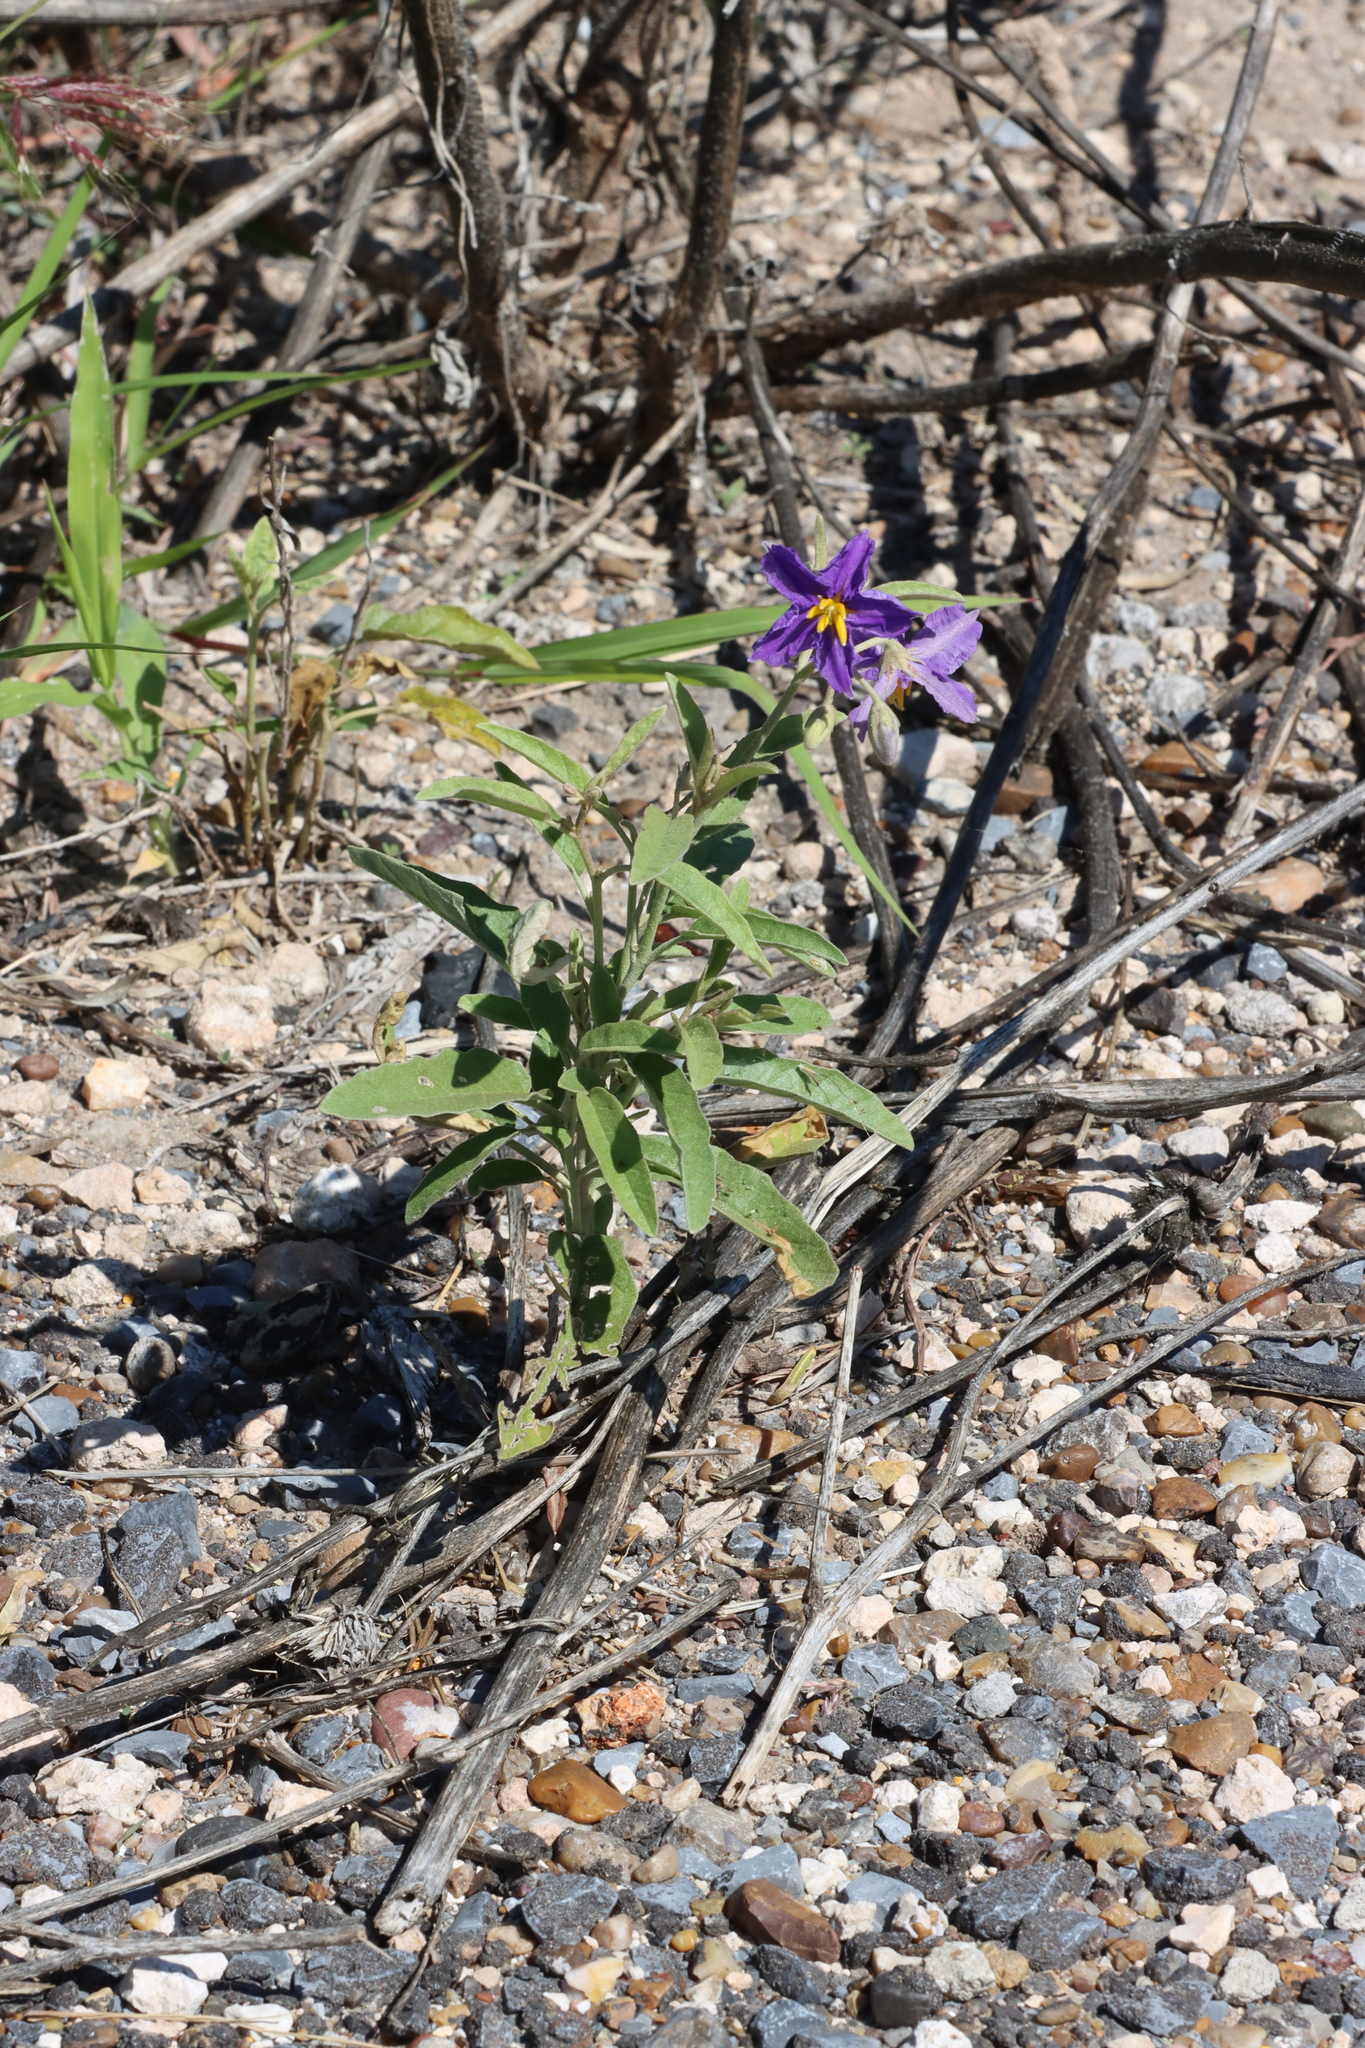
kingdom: Plantae
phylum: Tracheophyta
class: Magnoliopsida
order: Solanales
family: Solanaceae
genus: Solanum
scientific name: Solanum elaeagnifolium
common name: Silverleaf nightshade
